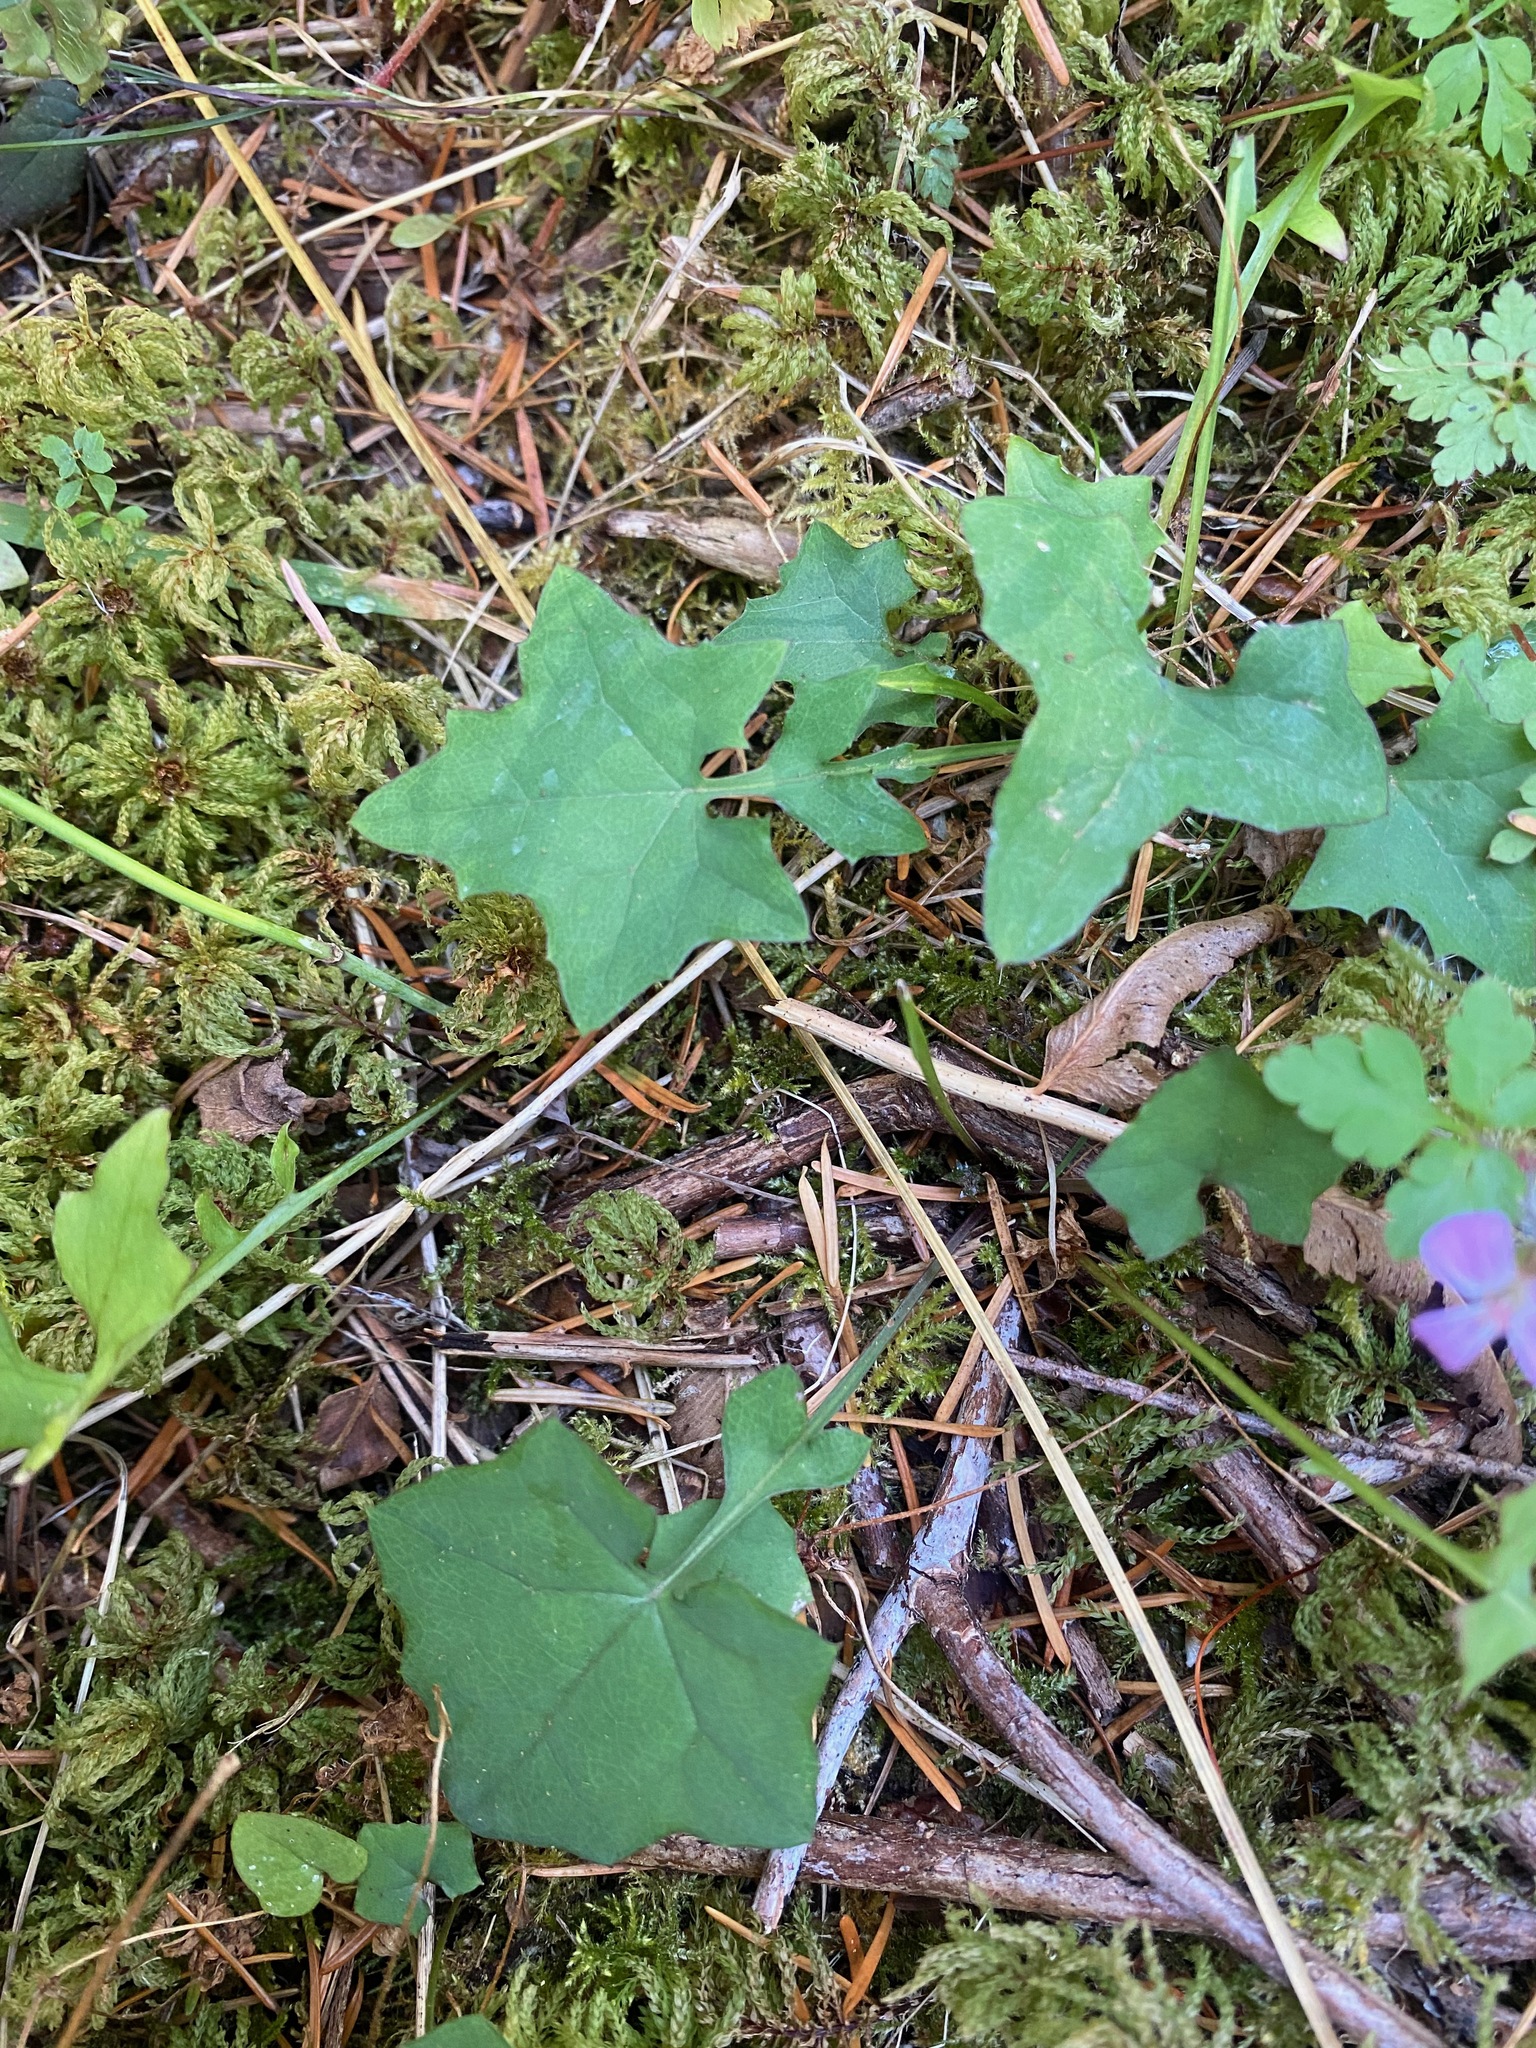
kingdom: Plantae
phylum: Tracheophyta
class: Magnoliopsida
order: Asterales
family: Asteraceae
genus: Mycelis
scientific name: Mycelis muralis
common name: Wall lettuce
